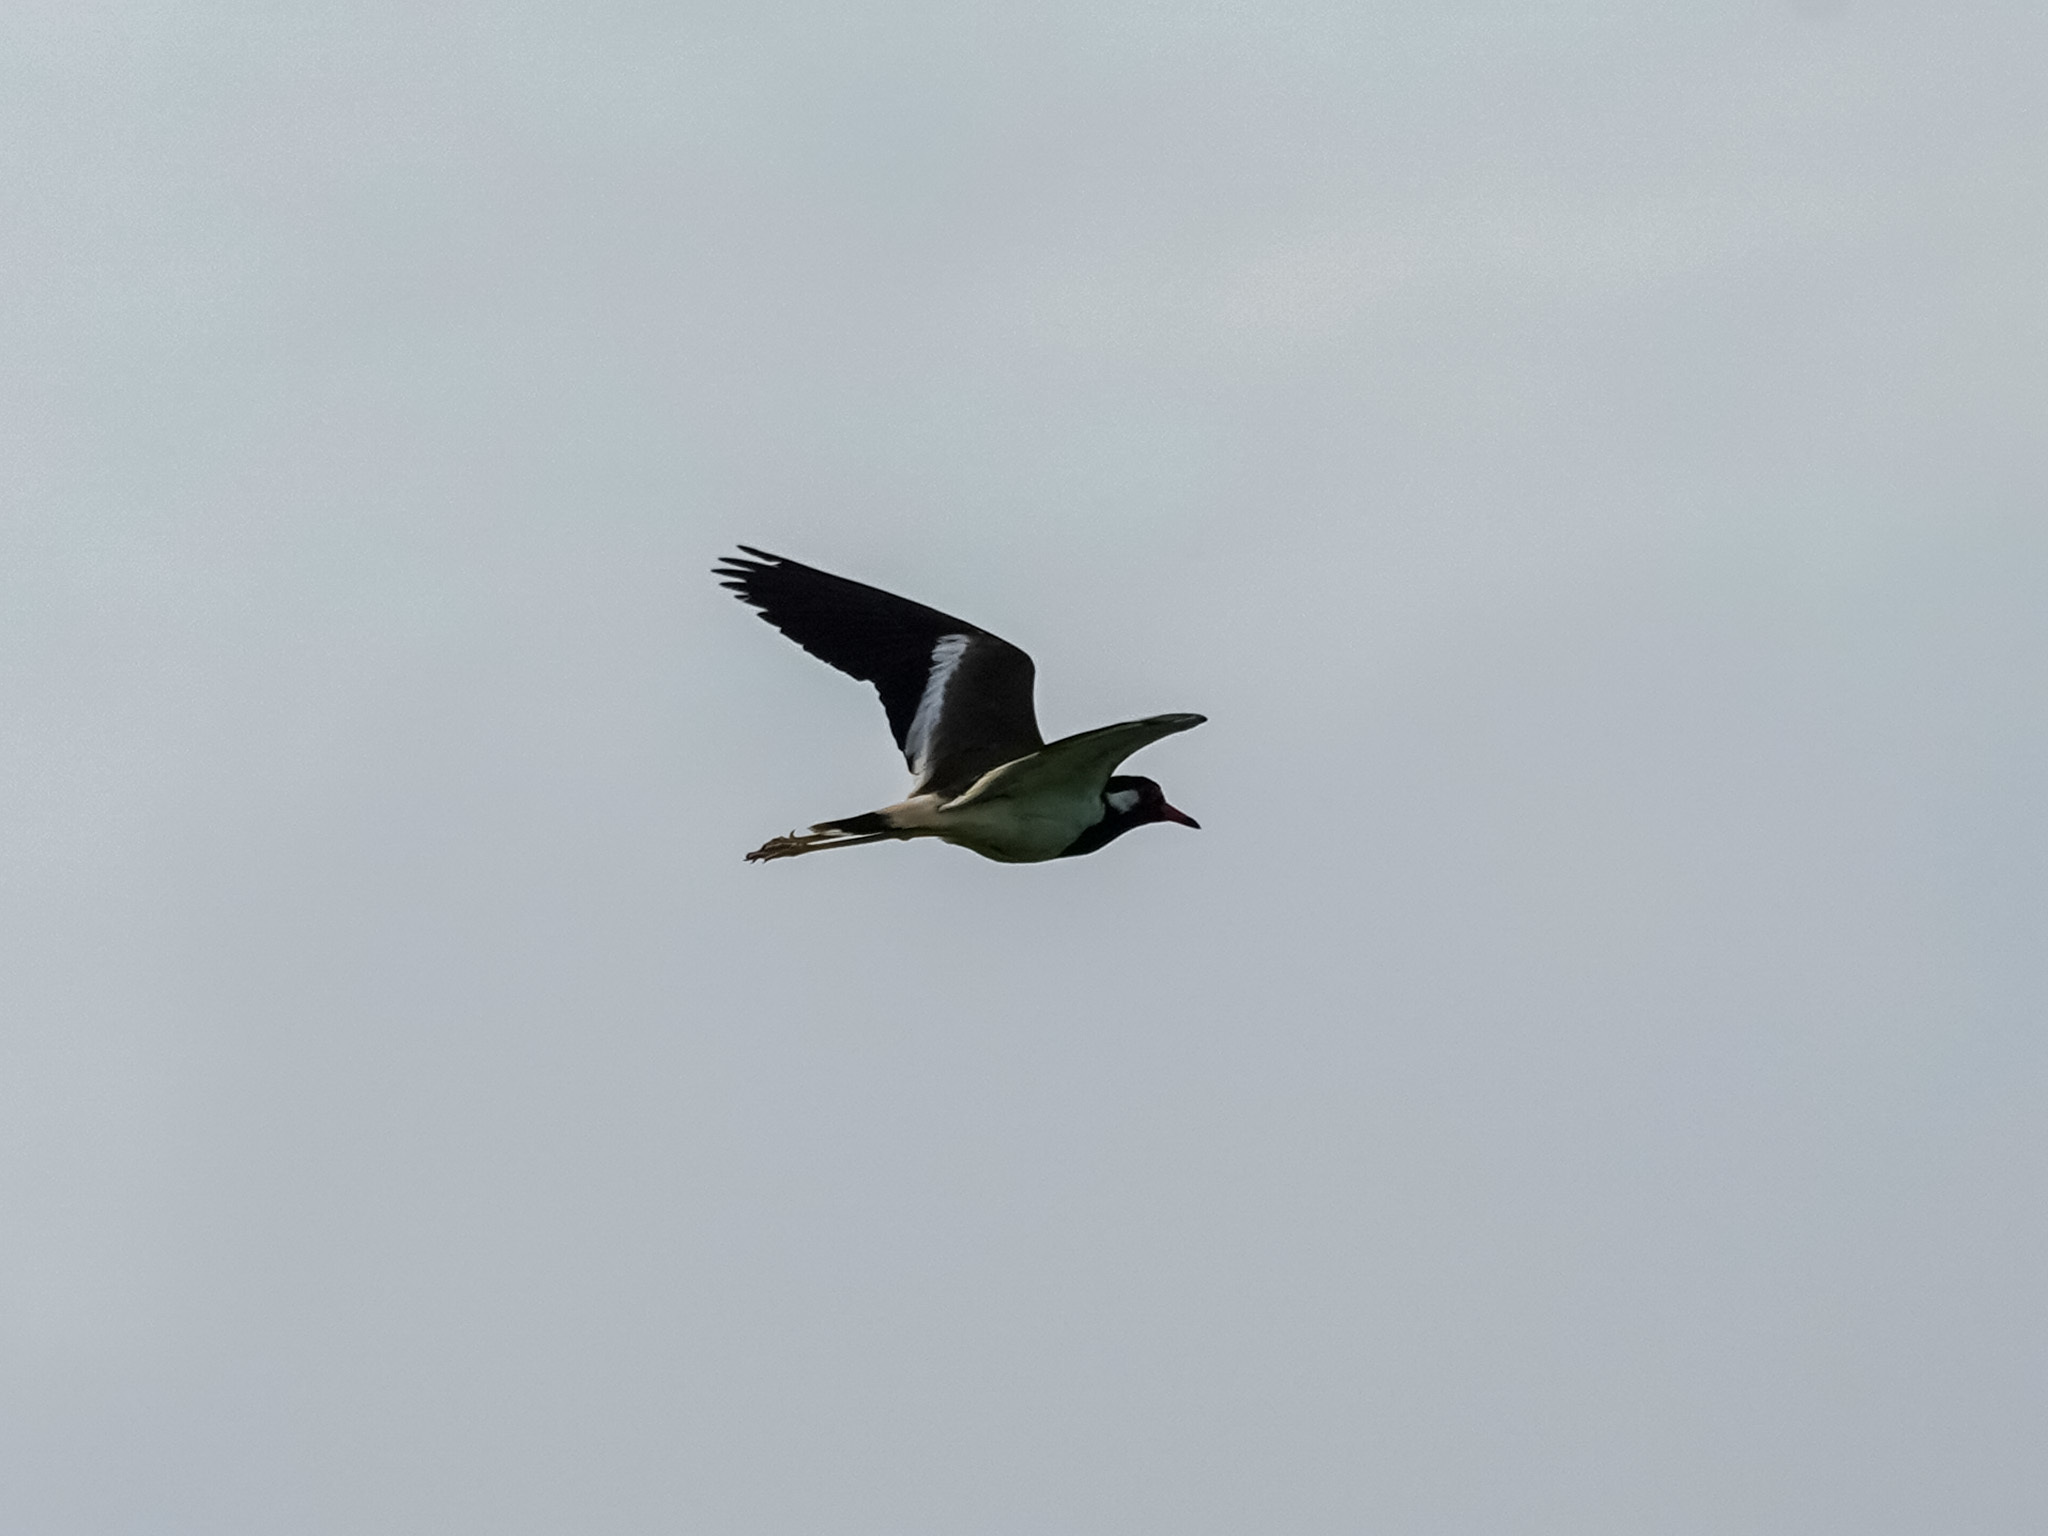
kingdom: Animalia
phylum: Chordata
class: Aves
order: Charadriiformes
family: Charadriidae
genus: Vanellus
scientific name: Vanellus indicus
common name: Red-wattled lapwing
